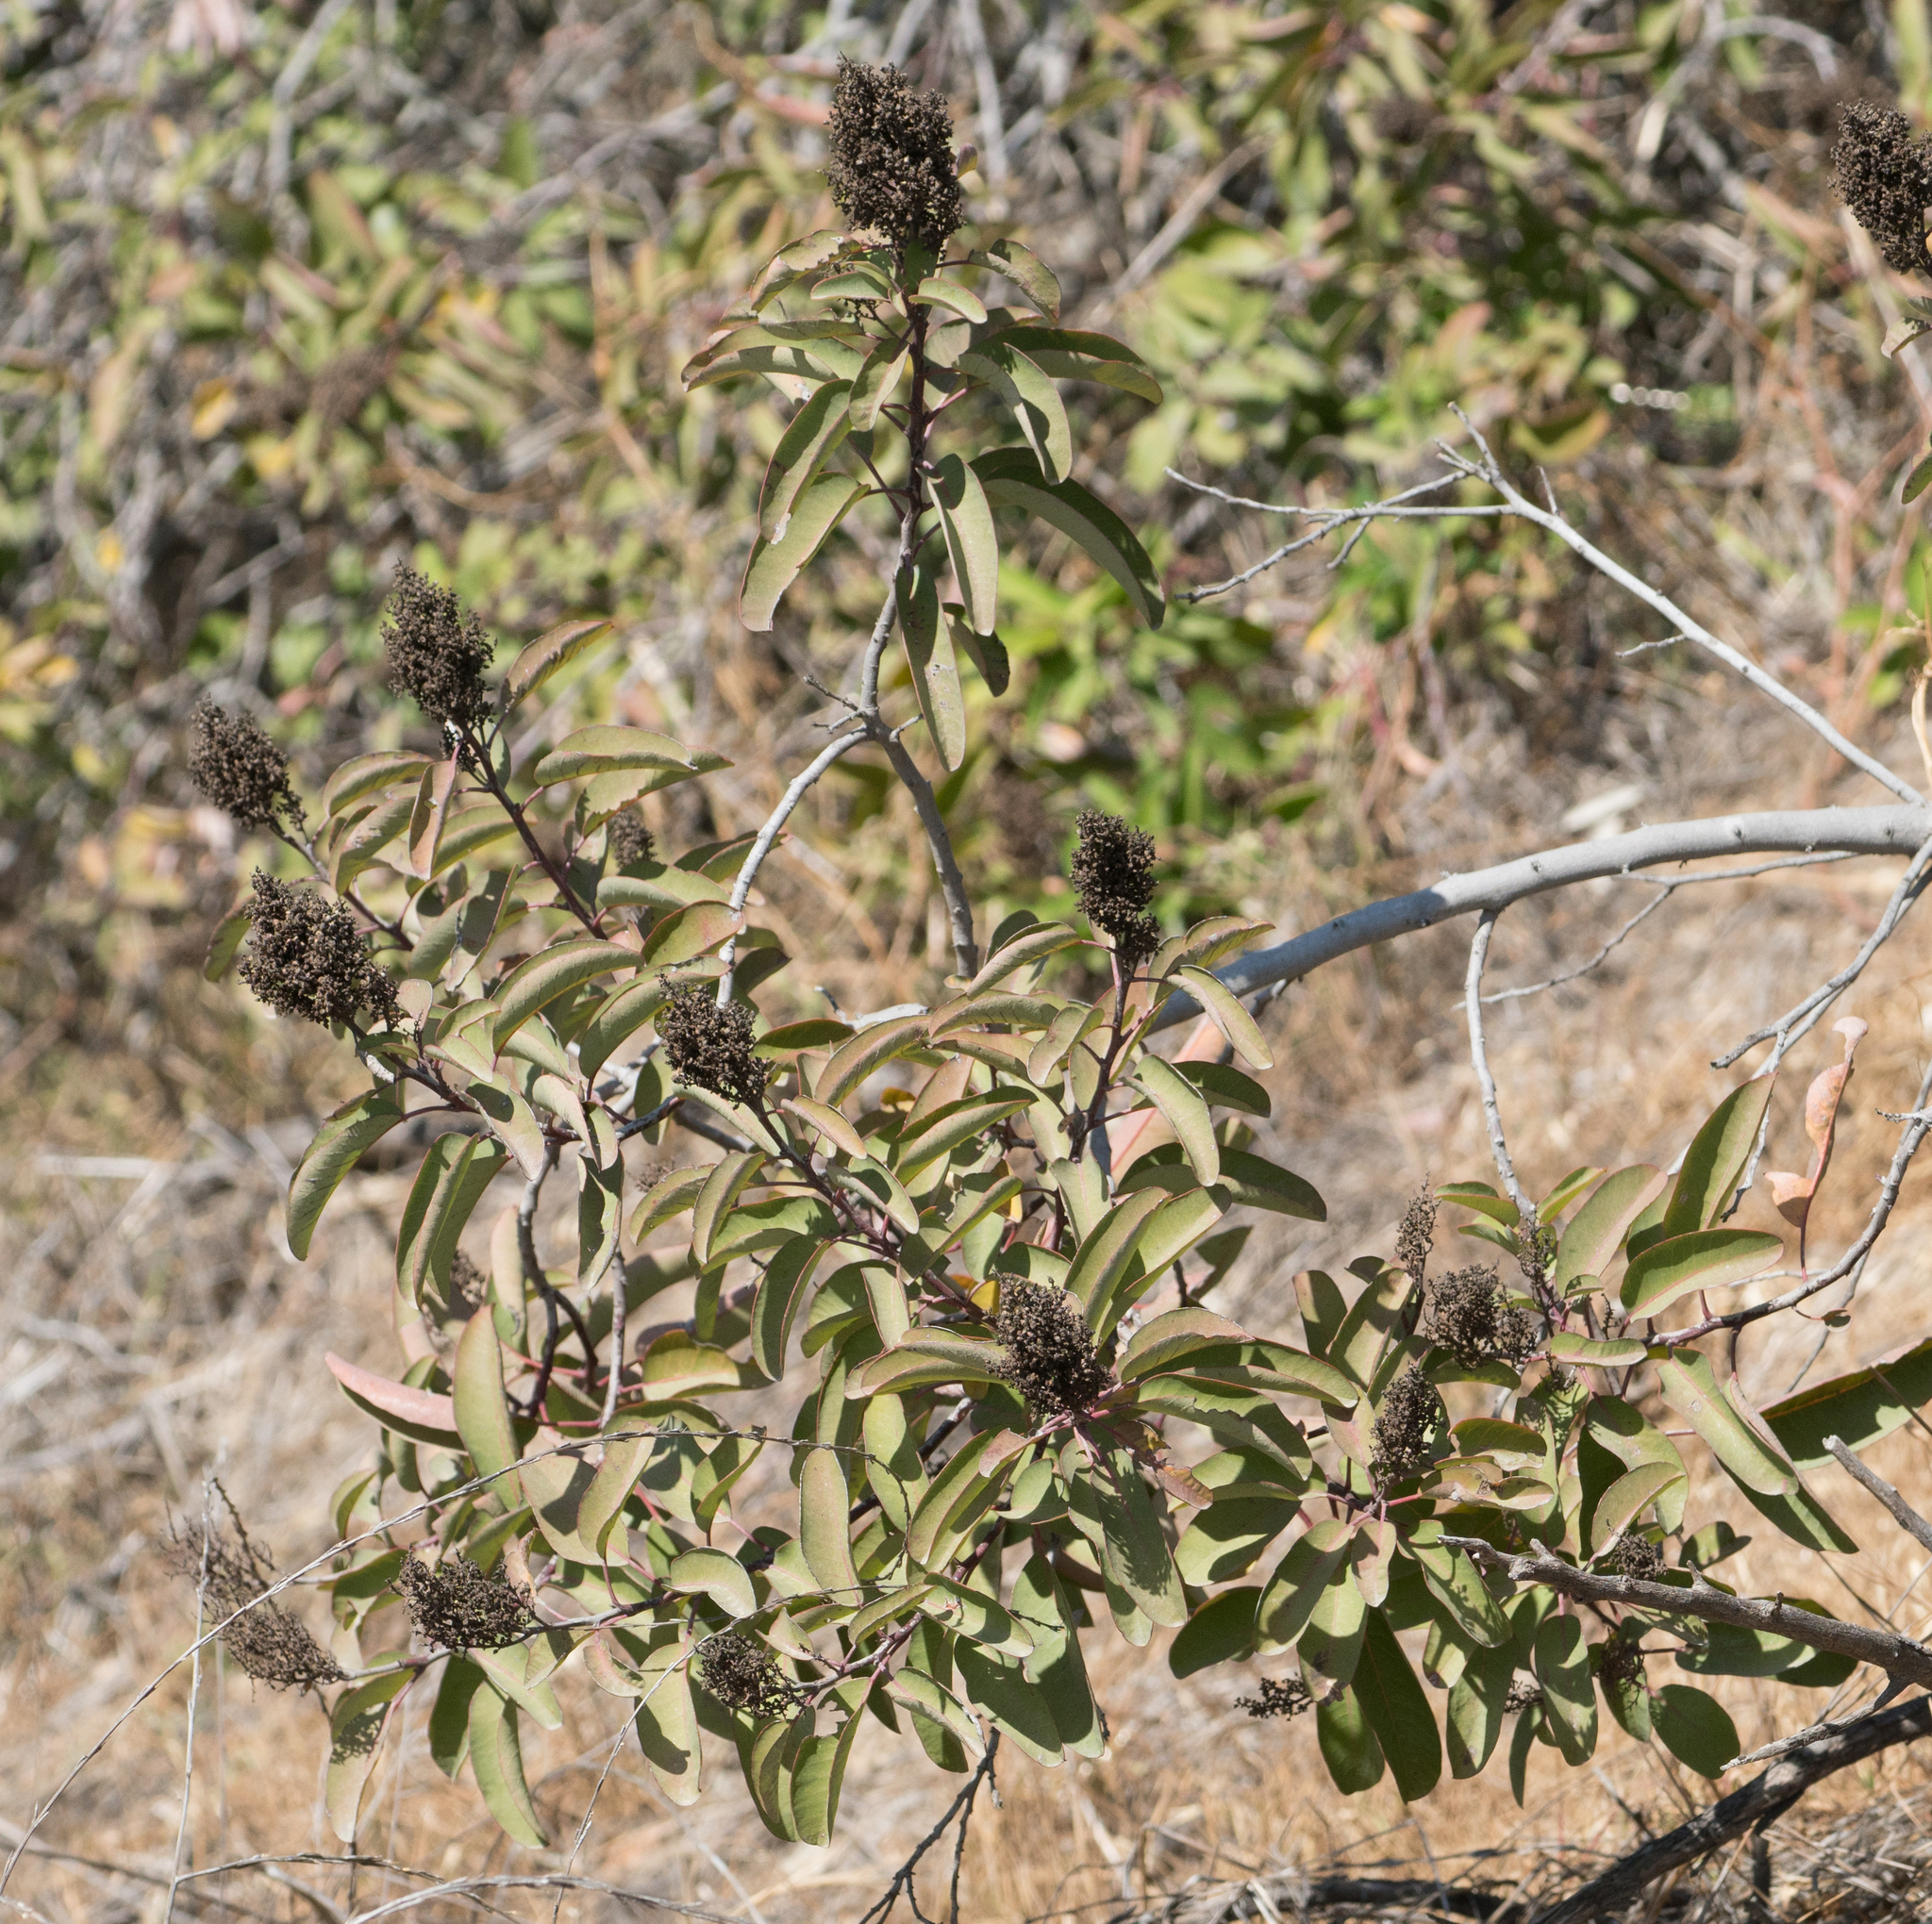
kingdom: Plantae
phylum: Tracheophyta
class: Magnoliopsida
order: Sapindales
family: Anacardiaceae
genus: Malosma
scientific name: Malosma laurina
